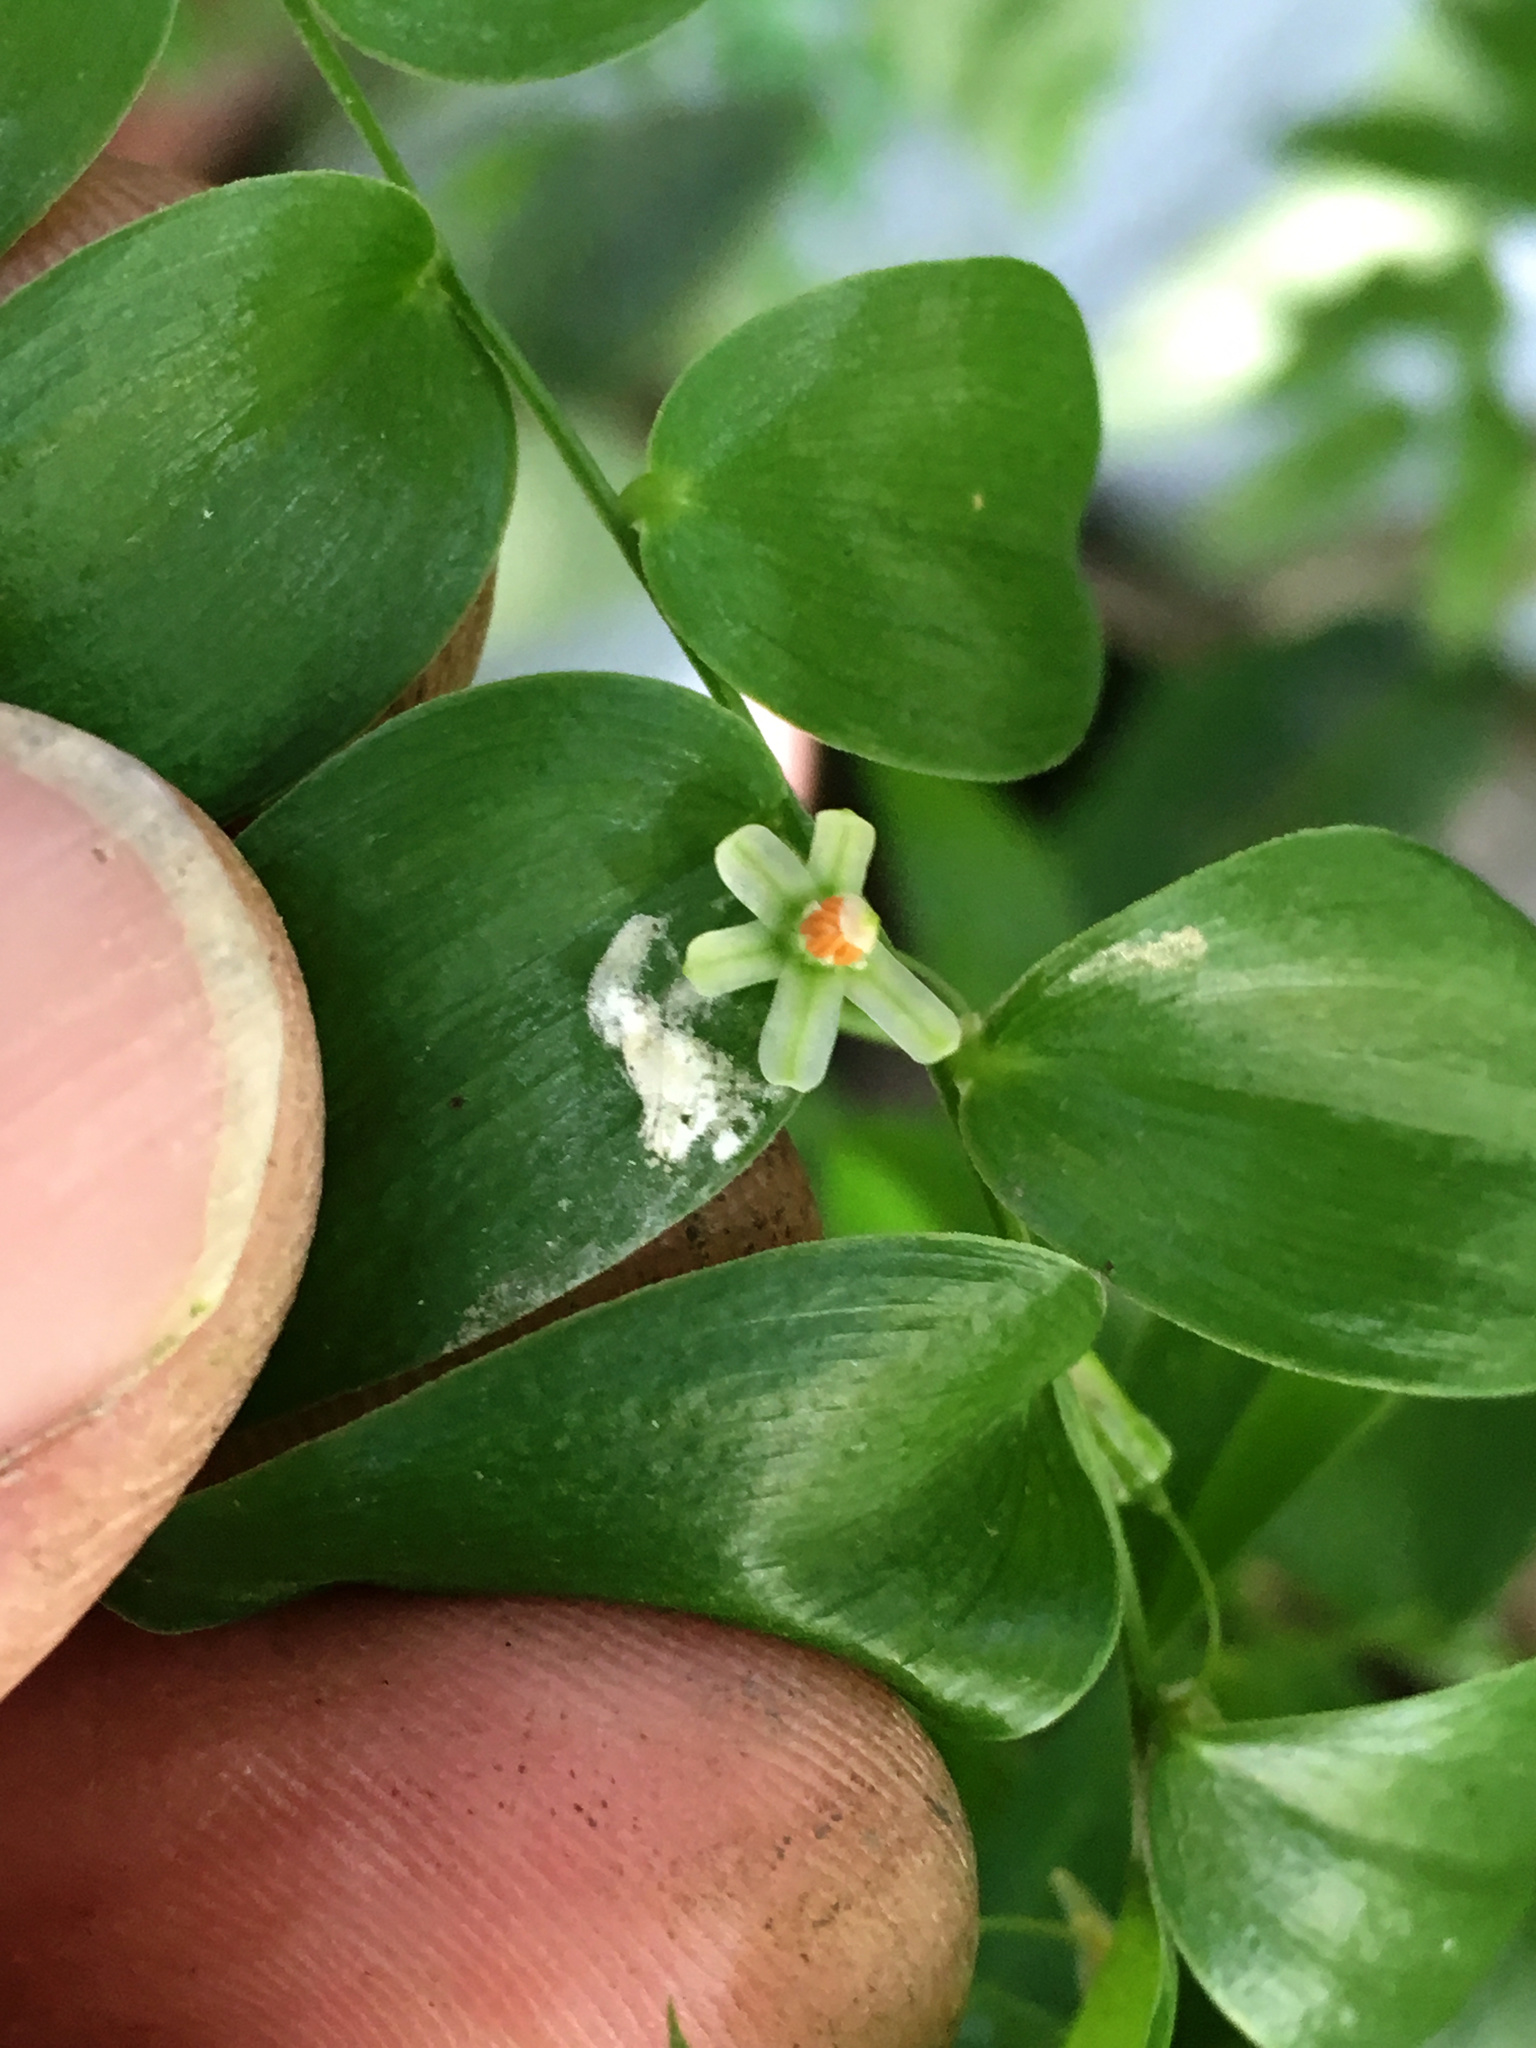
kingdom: Plantae
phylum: Tracheophyta
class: Liliopsida
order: Asparagales
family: Asparagaceae
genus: Asparagus
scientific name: Asparagus asparagoides
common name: African asparagus fern
